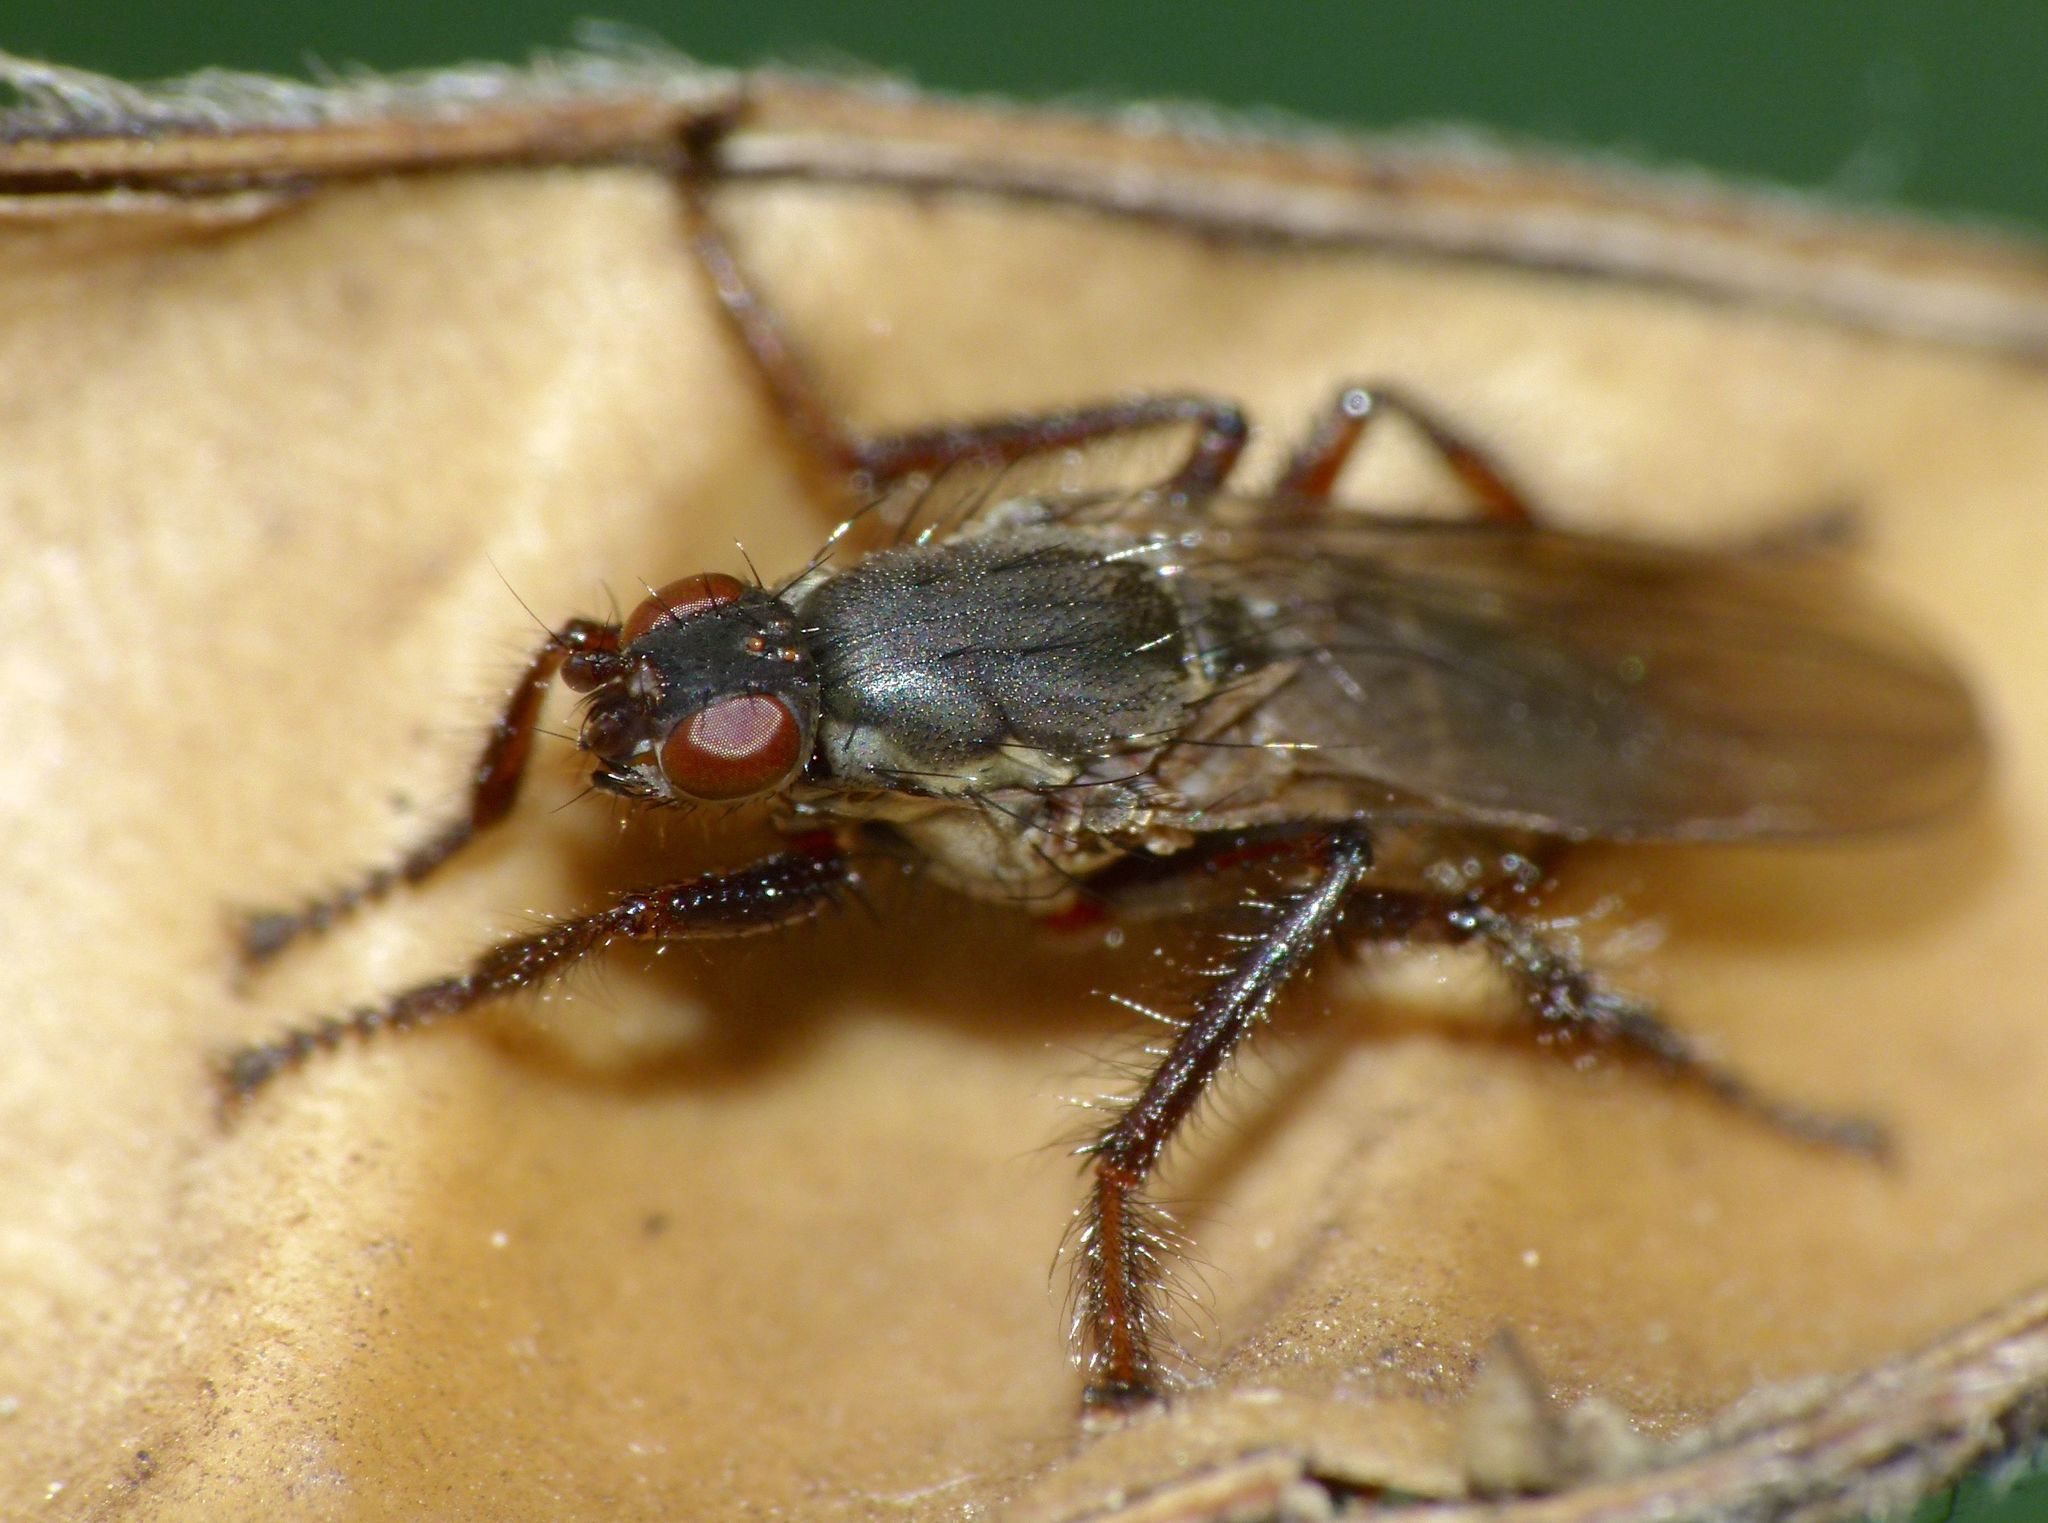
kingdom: Animalia
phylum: Arthropoda
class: Insecta
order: Diptera
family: Coelopidae
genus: Chaetocoelopa
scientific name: Chaetocoelopa littoralis
